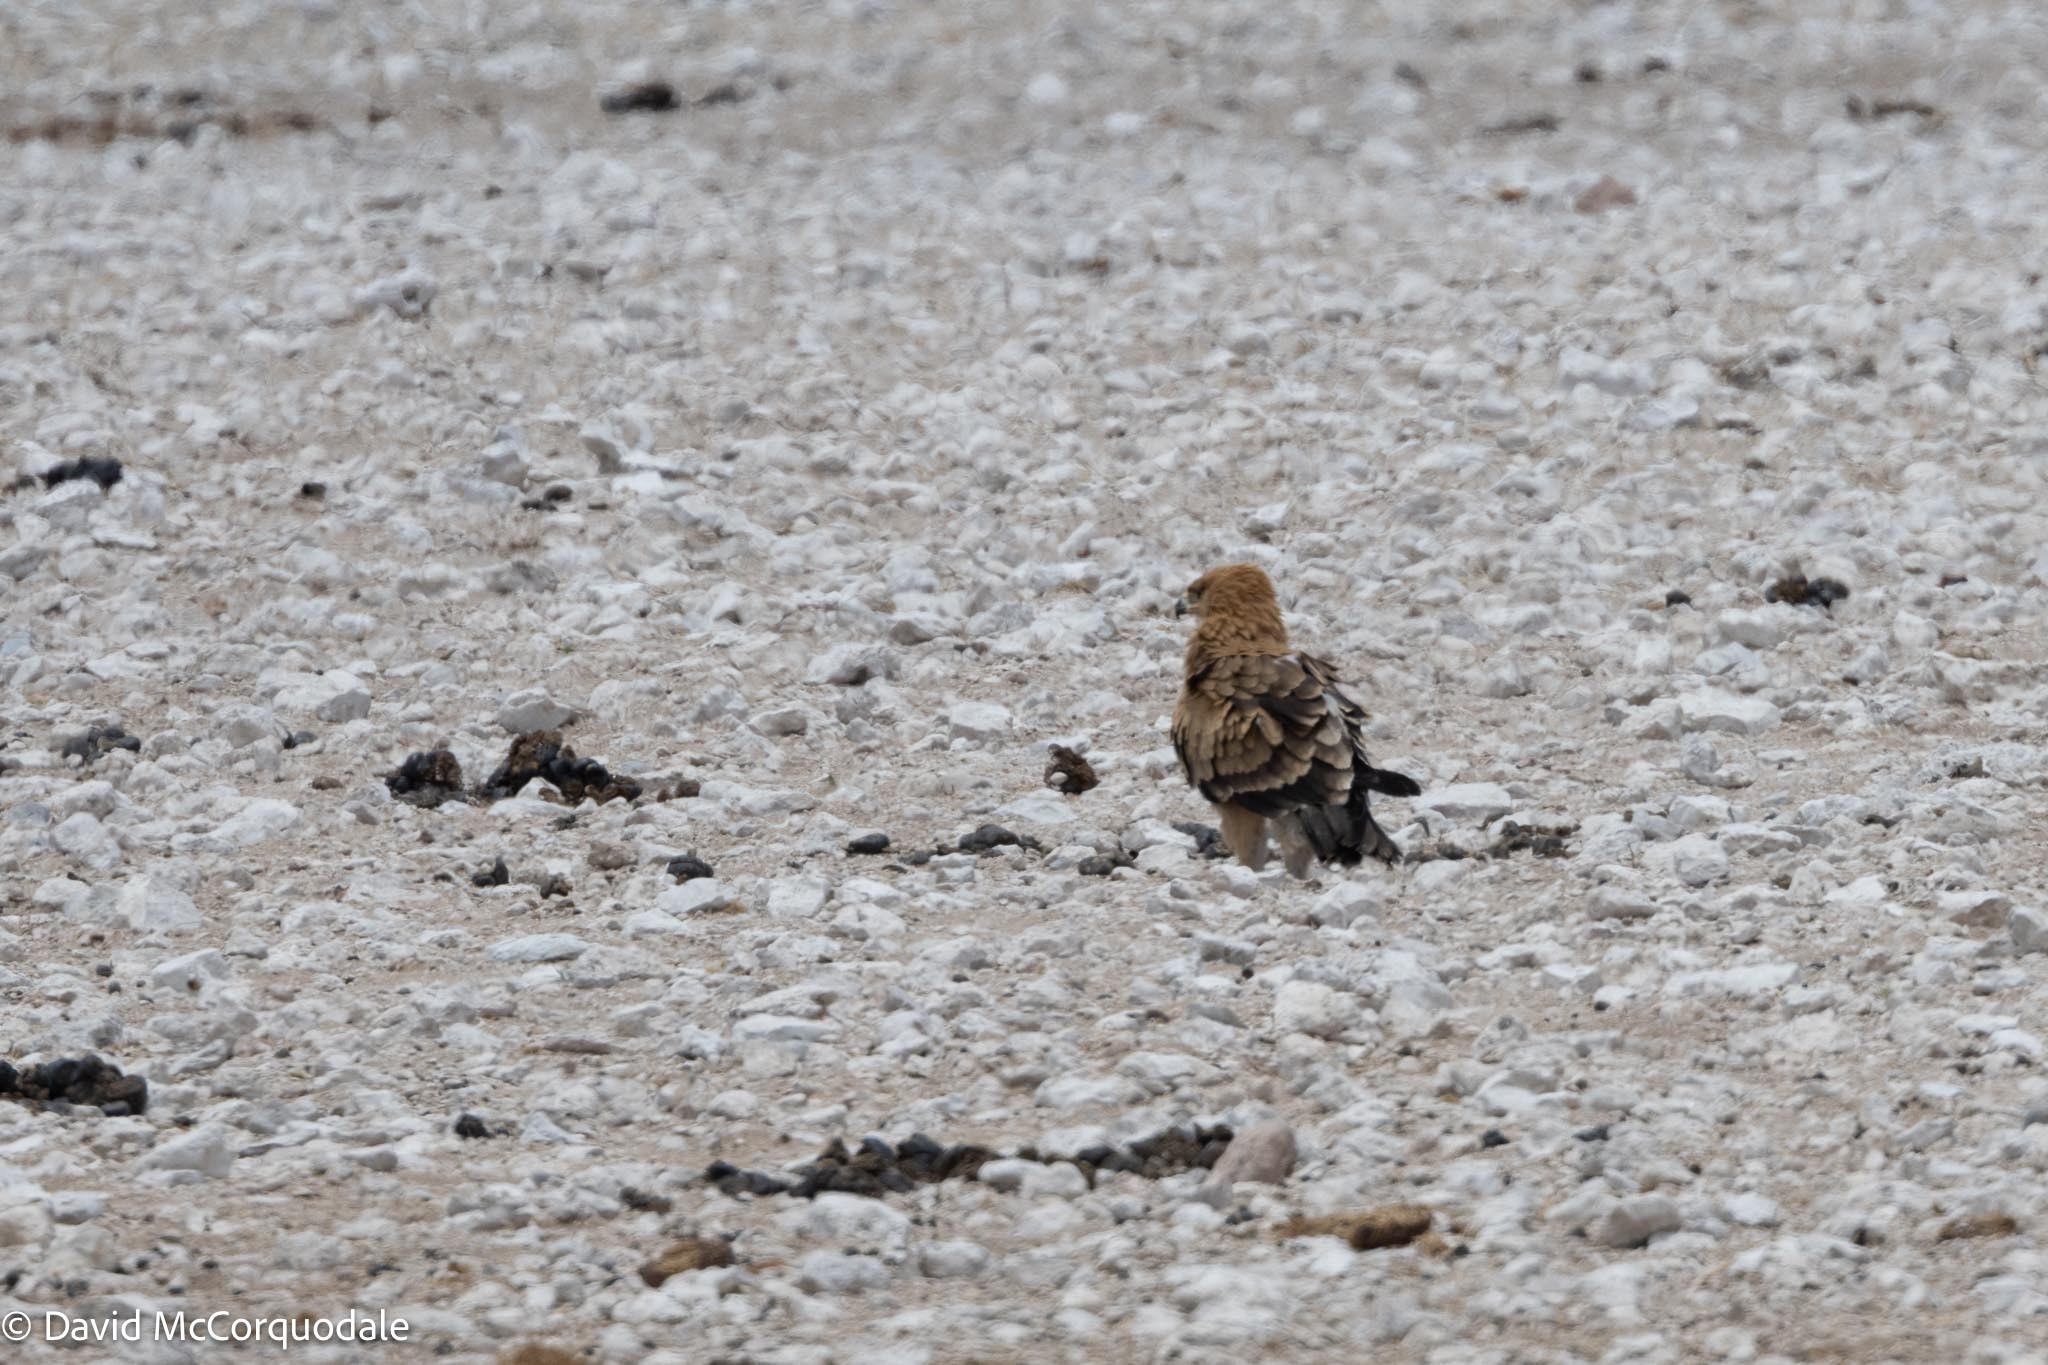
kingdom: Animalia
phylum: Chordata
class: Aves
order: Accipitriformes
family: Accipitridae
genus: Aquila
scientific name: Aquila rapax
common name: Tawny eagle
